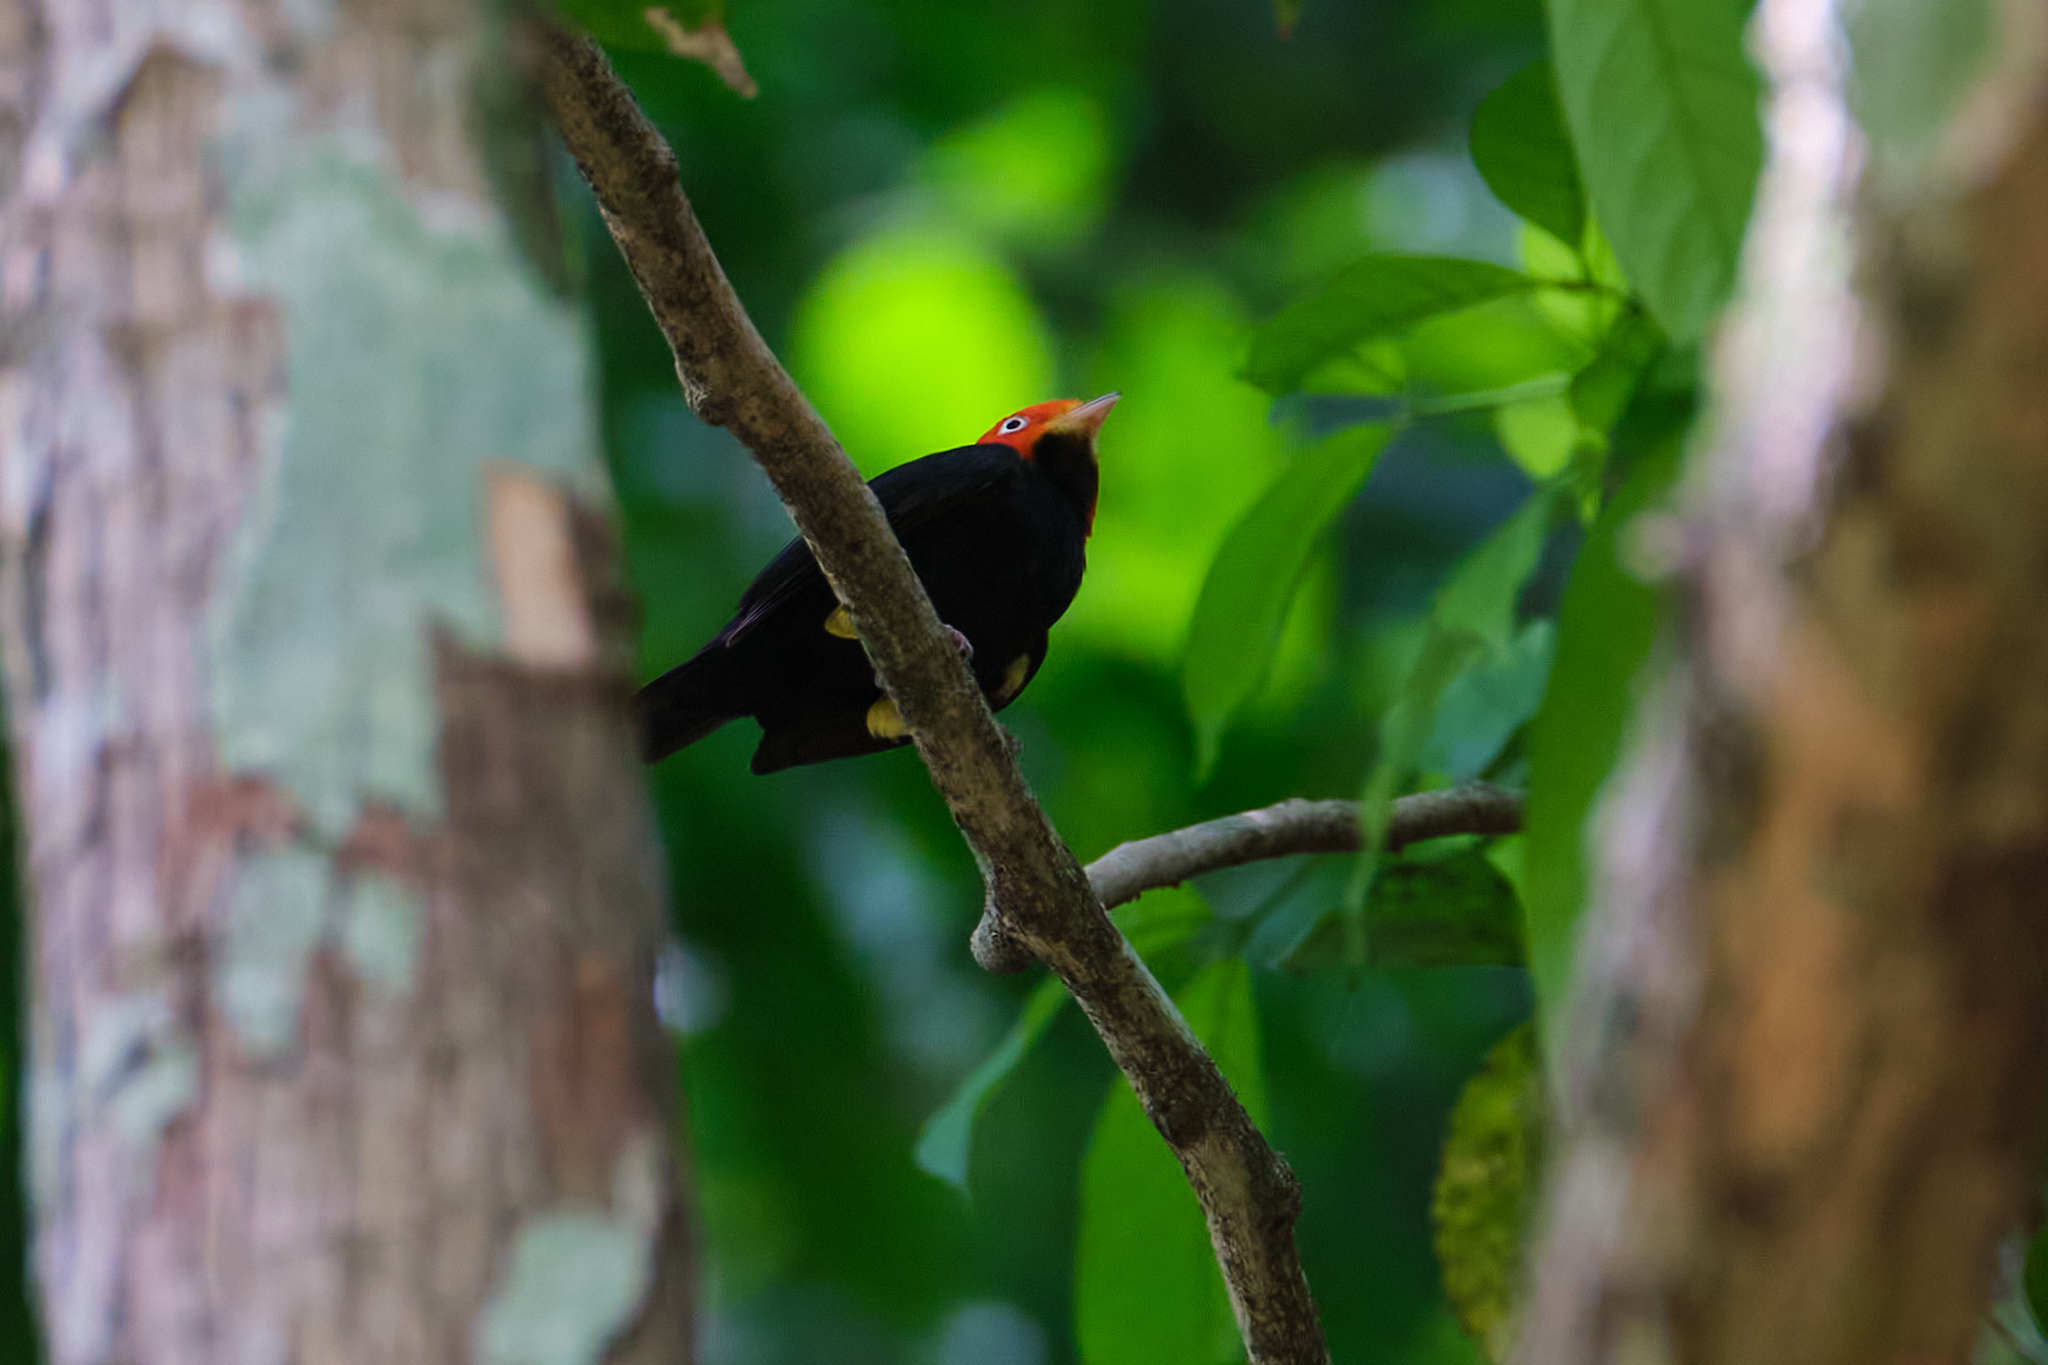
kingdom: Animalia
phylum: Chordata
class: Aves
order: Passeriformes
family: Pipridae
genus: Pipra
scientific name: Pipra mentalis
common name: Red-capped manakin
